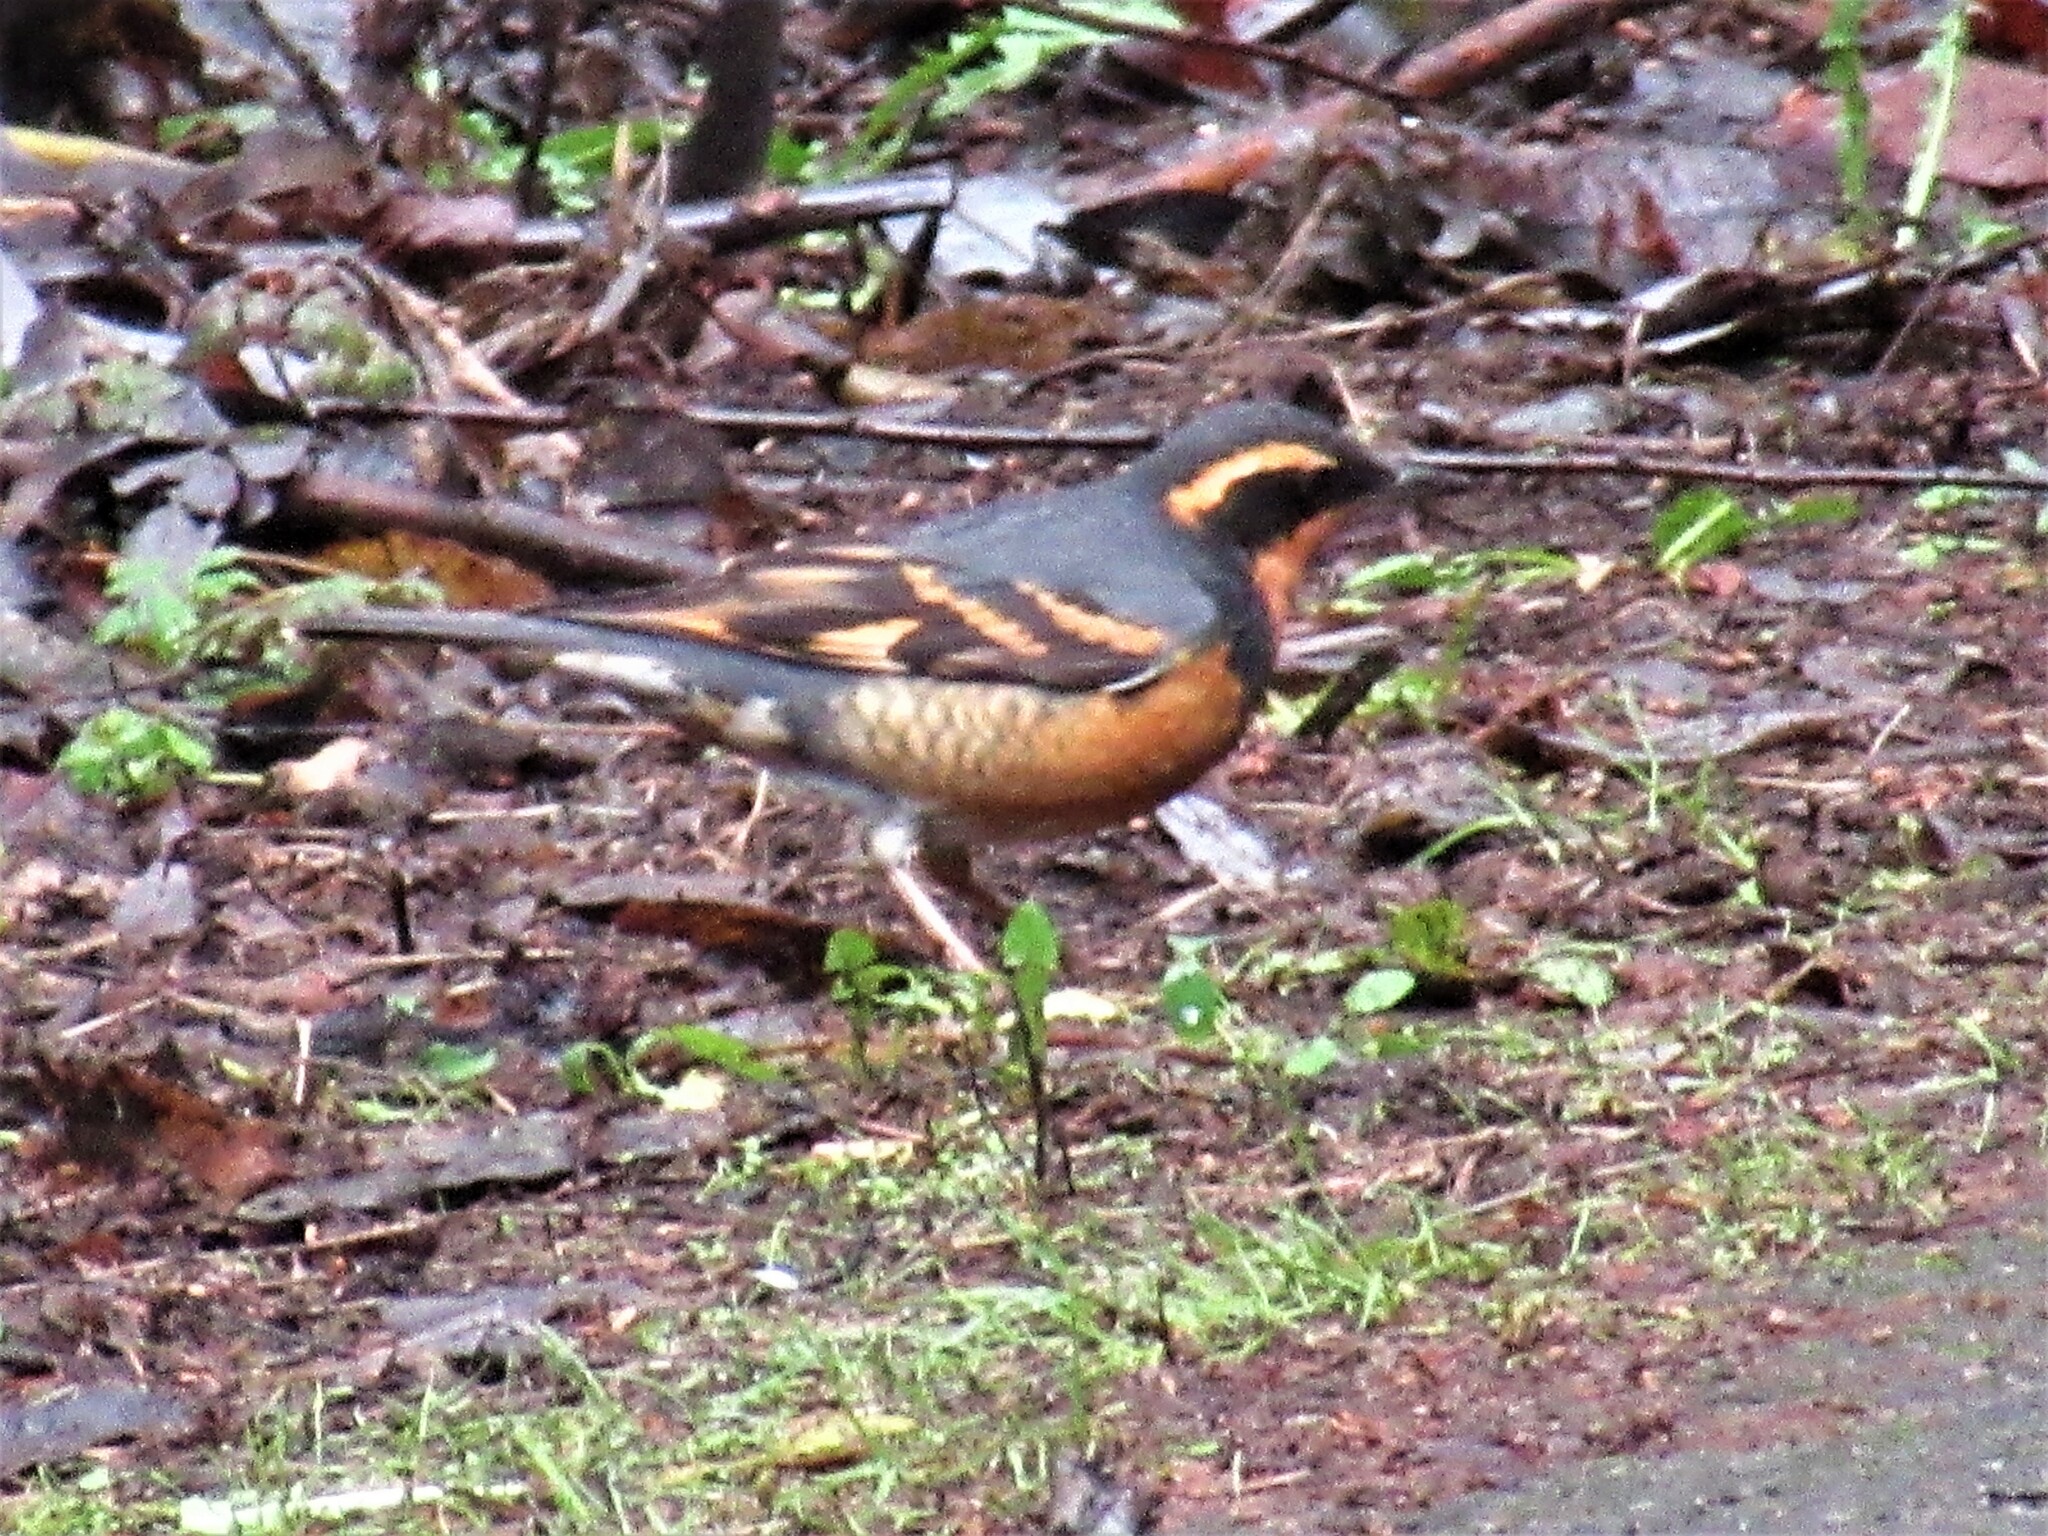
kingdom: Animalia
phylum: Chordata
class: Aves
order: Passeriformes
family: Turdidae
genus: Ixoreus
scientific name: Ixoreus naevius
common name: Varied thrush
